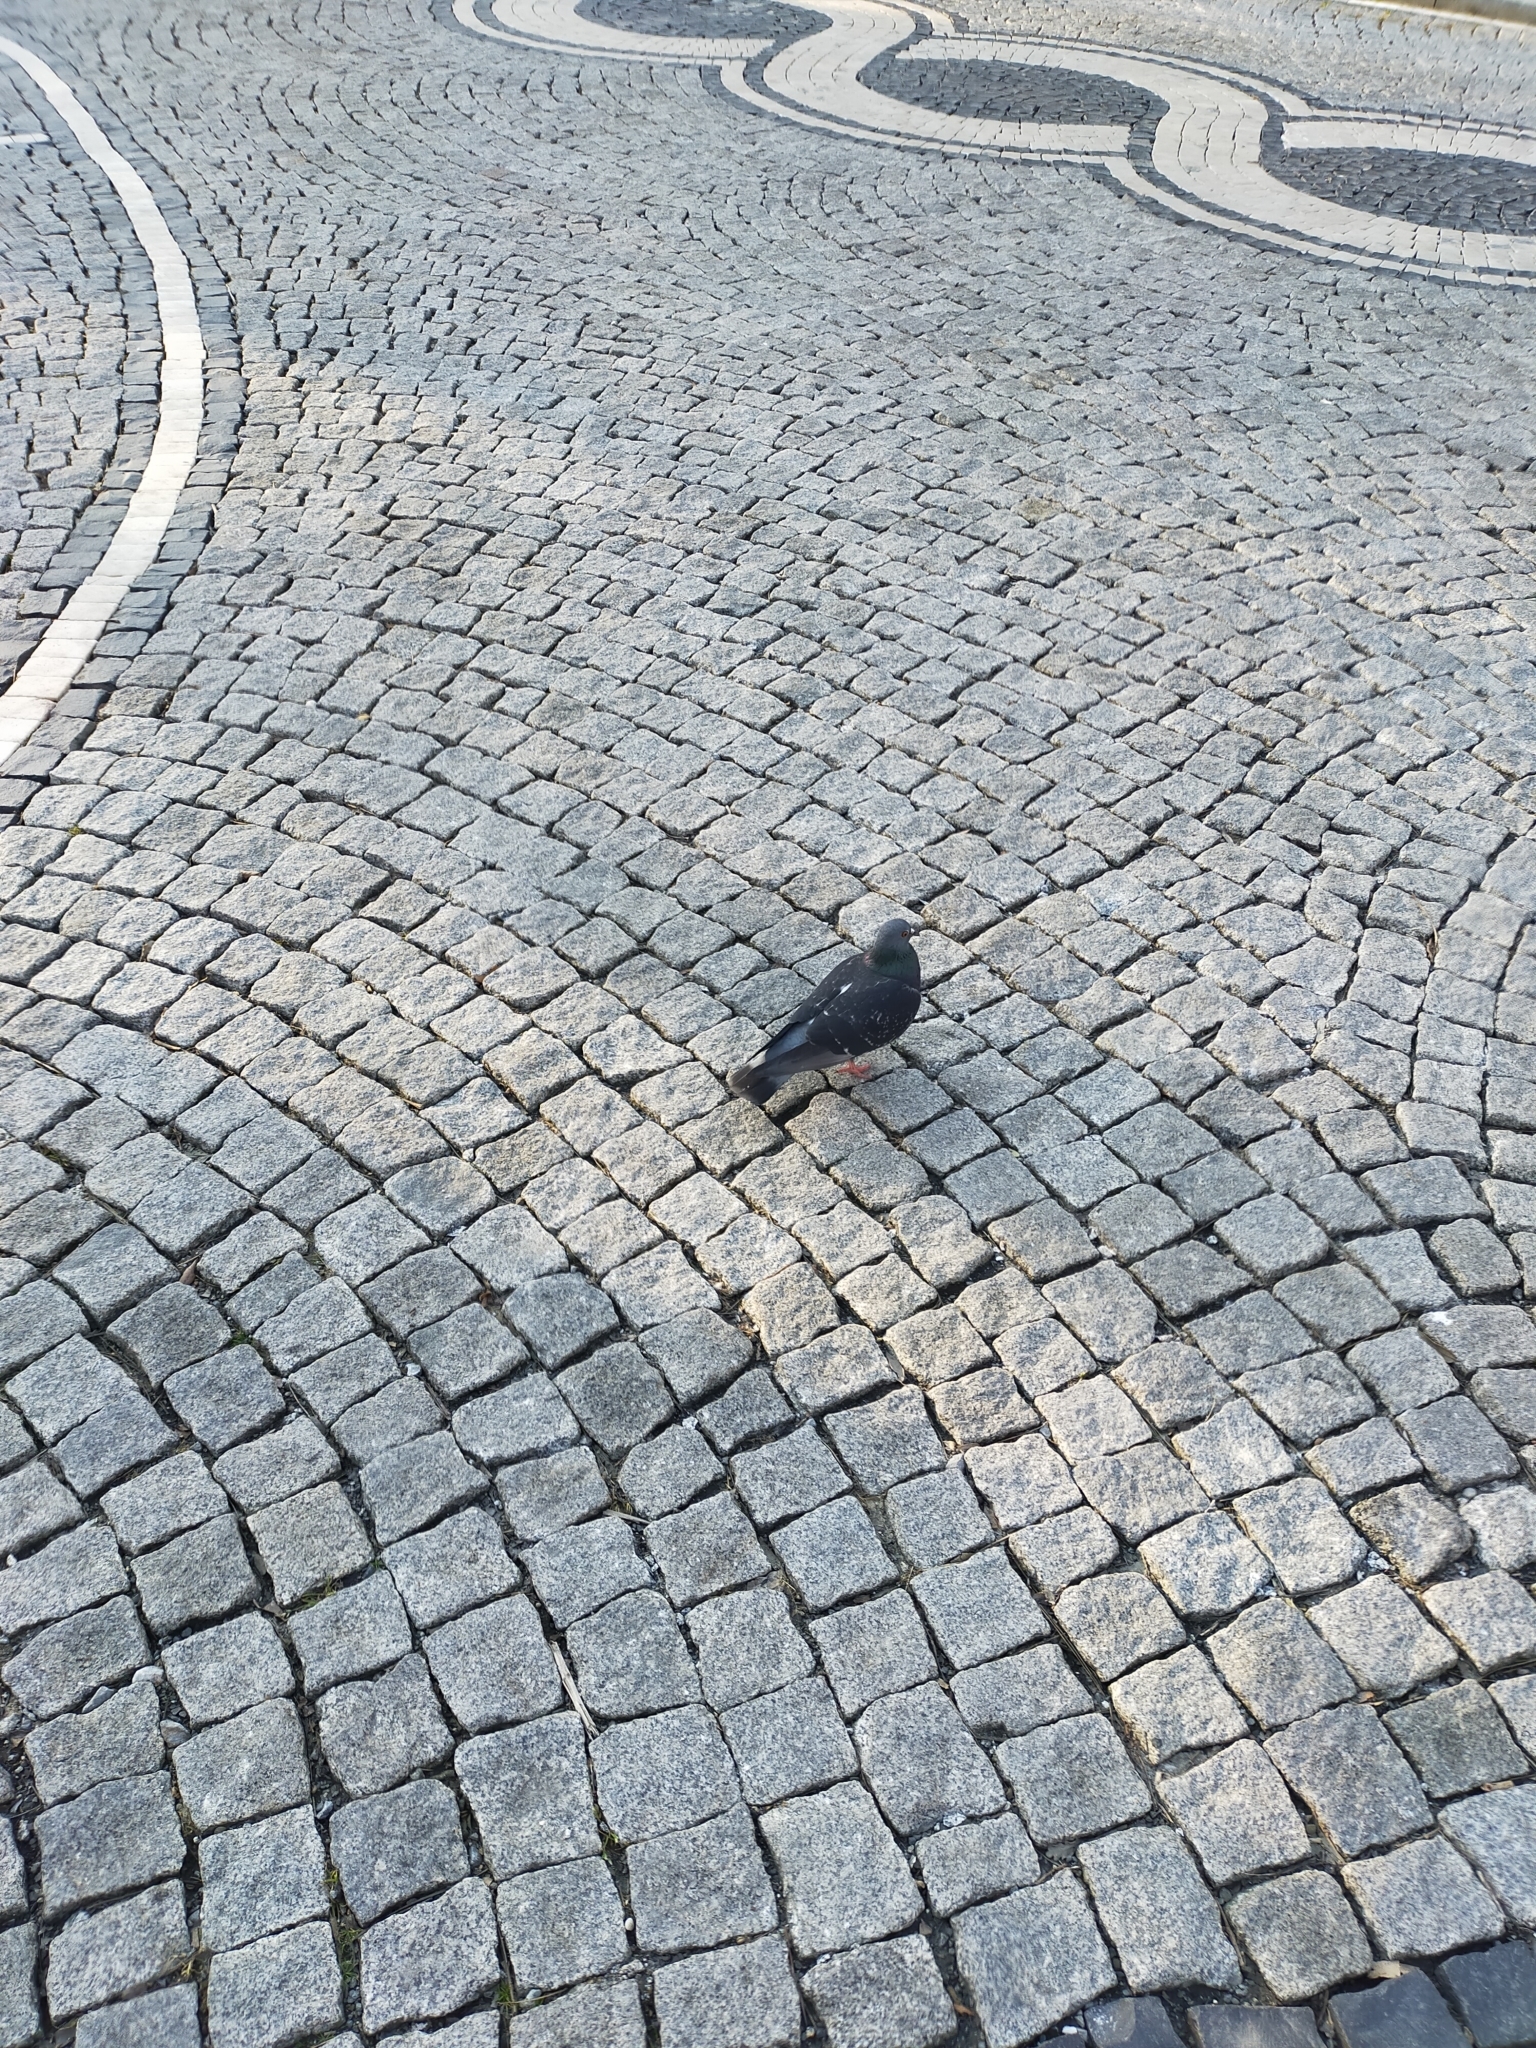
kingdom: Animalia
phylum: Chordata
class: Aves
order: Columbiformes
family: Columbidae
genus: Columba
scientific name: Columba livia
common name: Rock pigeon
